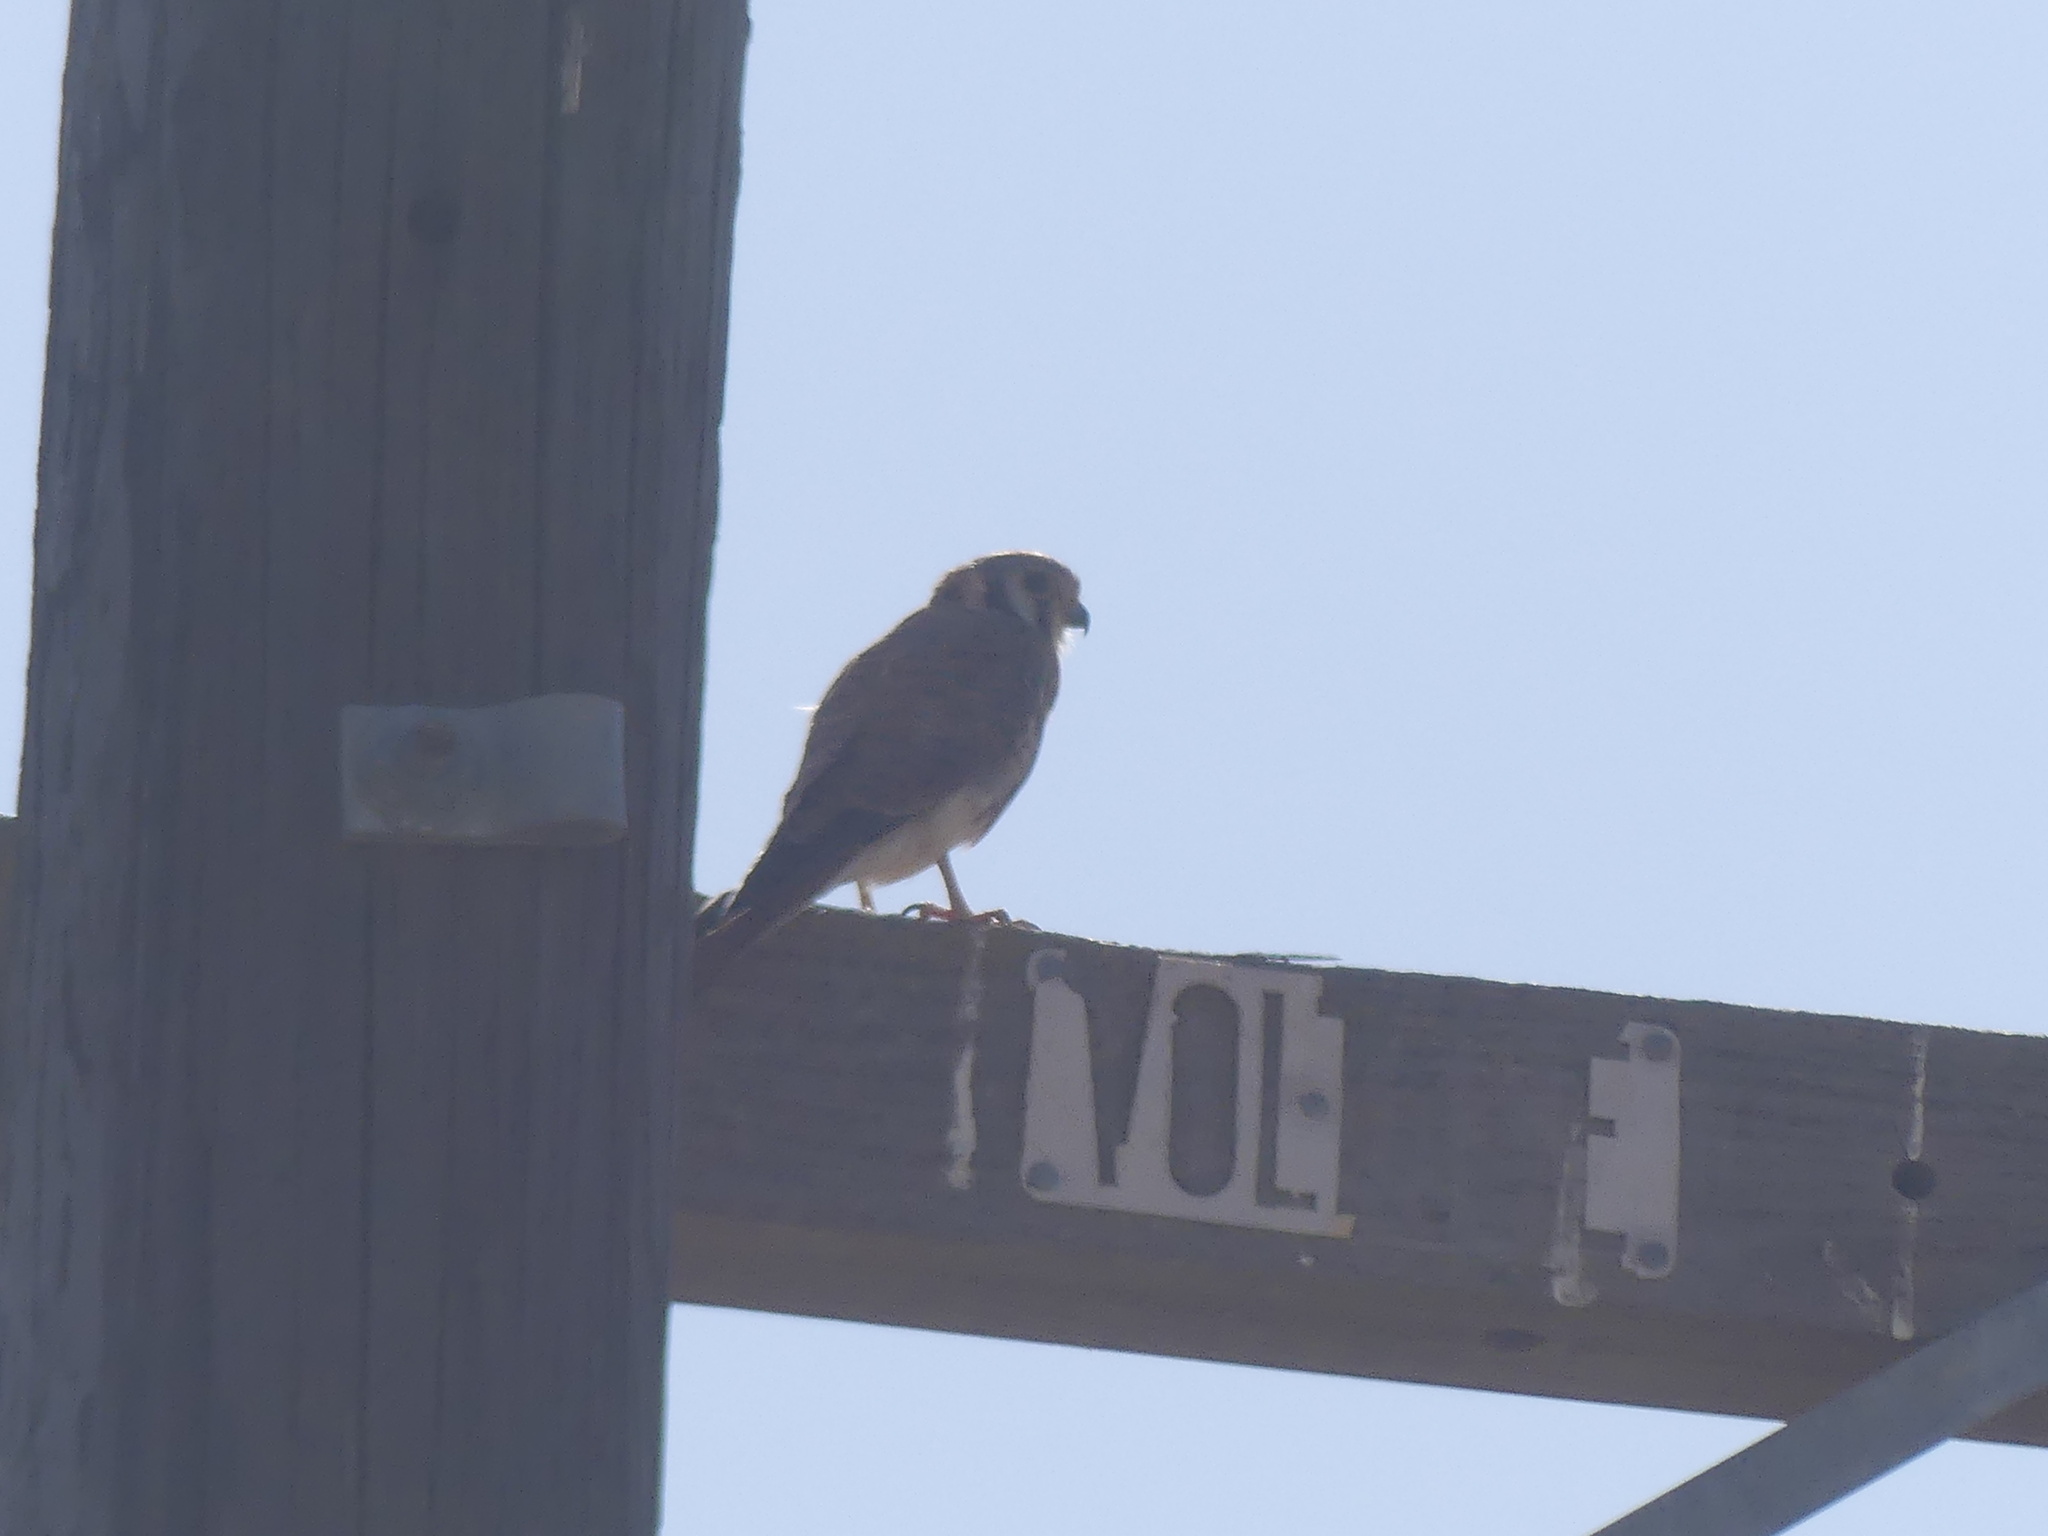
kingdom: Animalia
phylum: Chordata
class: Aves
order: Falconiformes
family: Falconidae
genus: Falco
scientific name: Falco sparverius
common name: American kestrel
